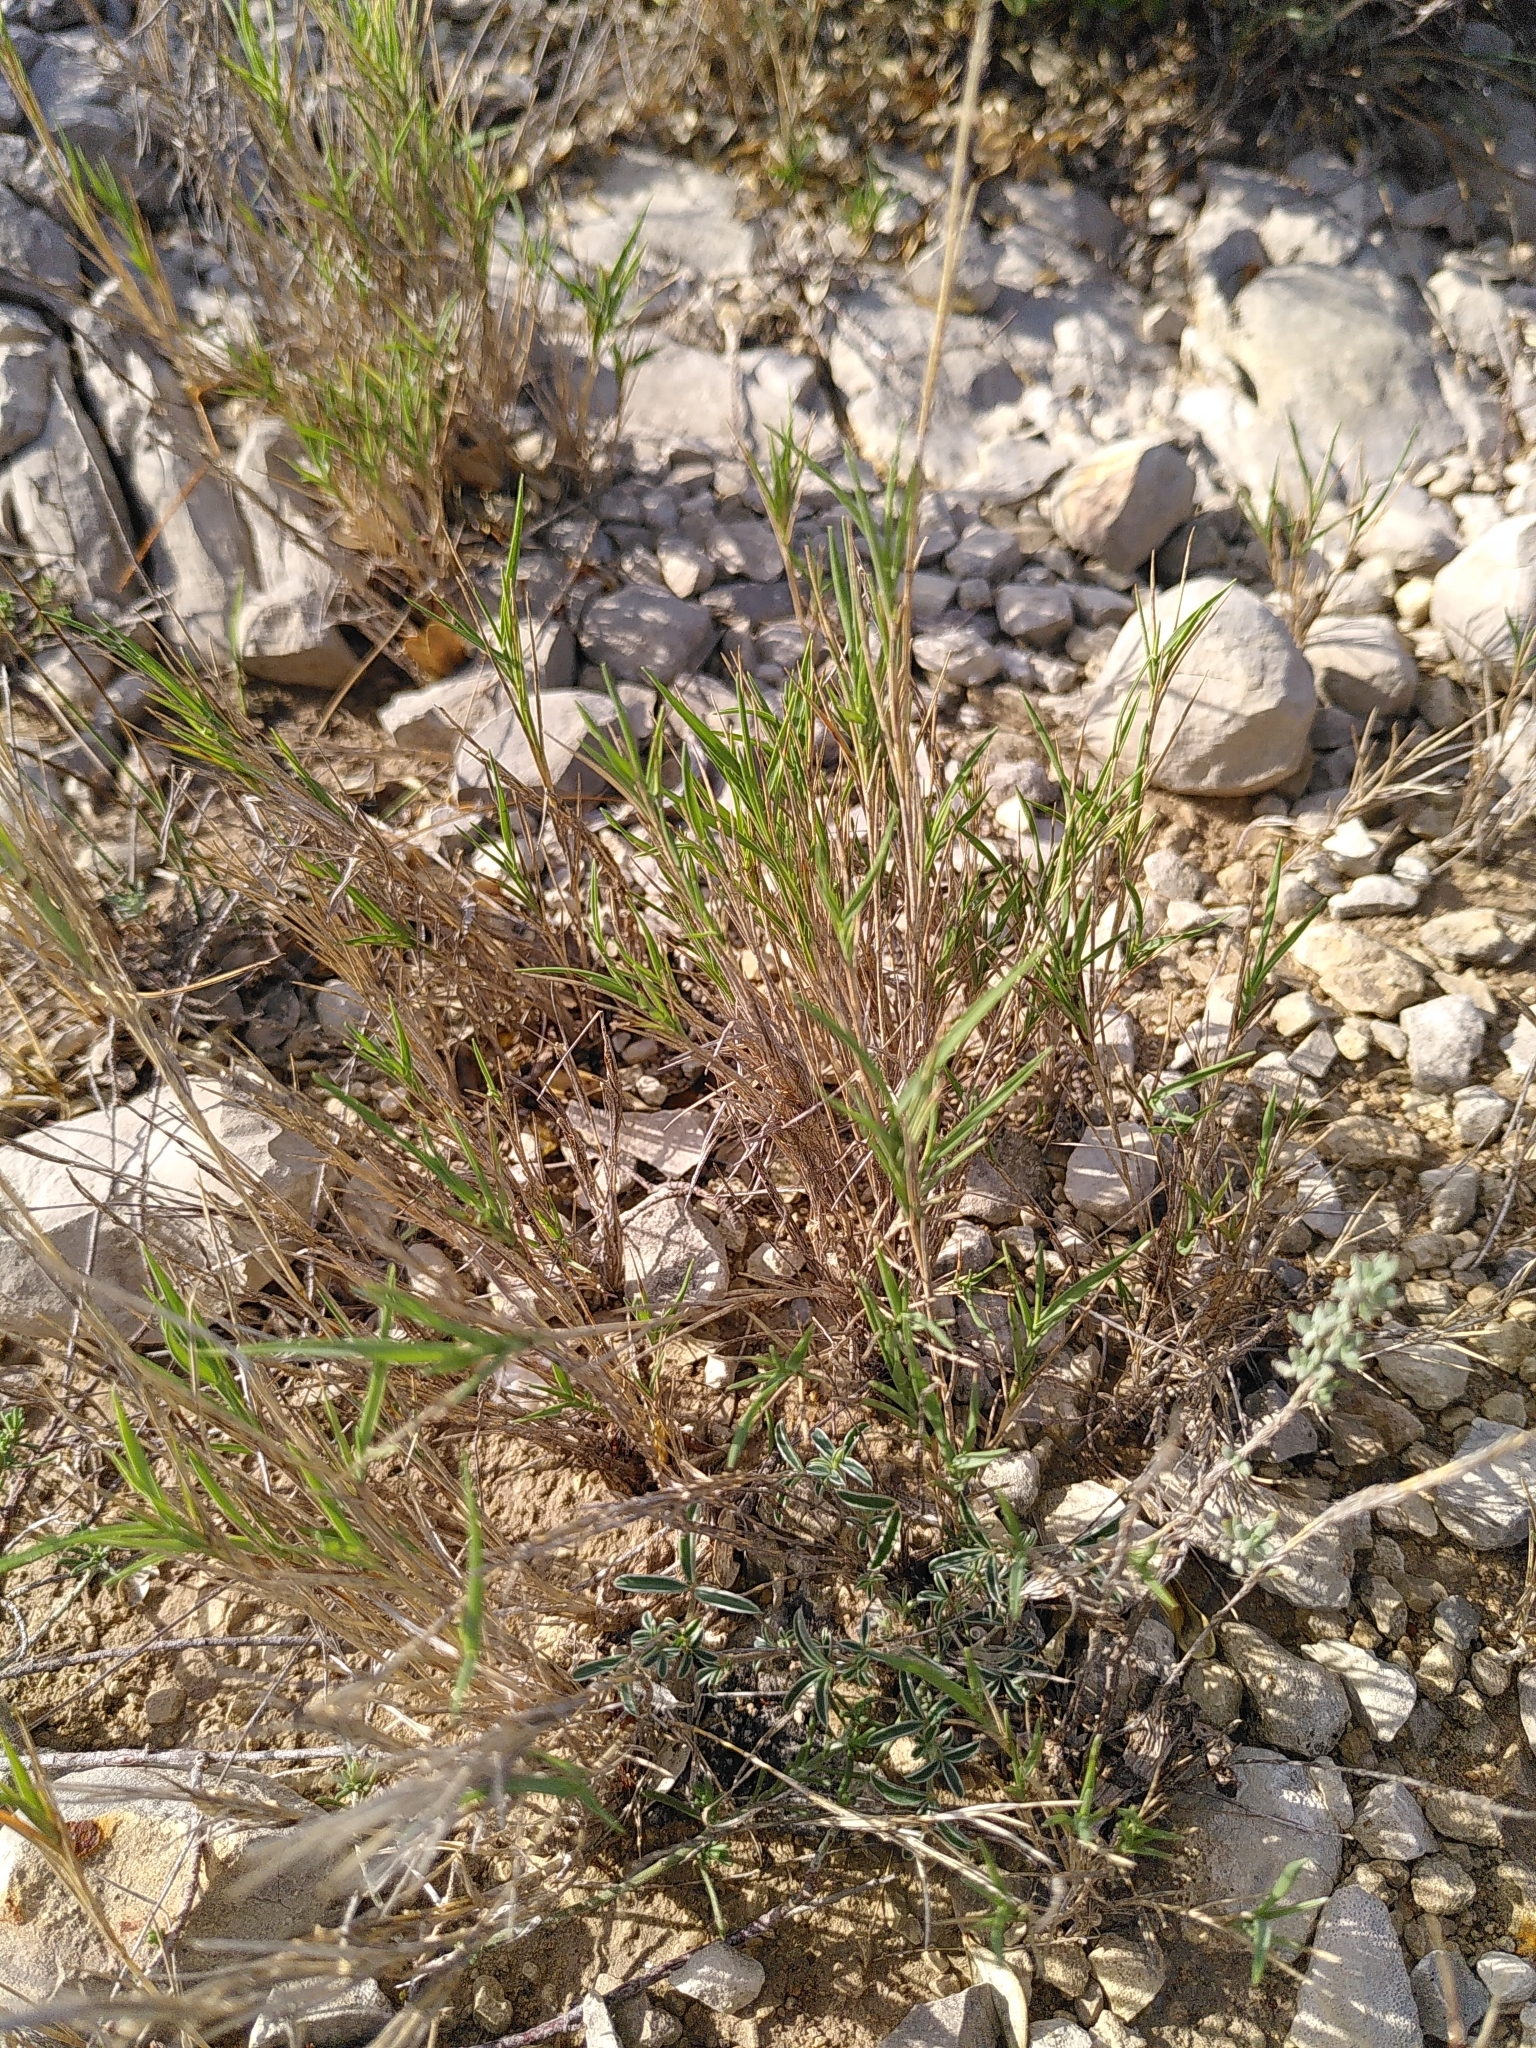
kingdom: Plantae
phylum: Tracheophyta
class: Liliopsida
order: Poales
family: Poaceae
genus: Brachypodium
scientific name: Brachypodium retusum
